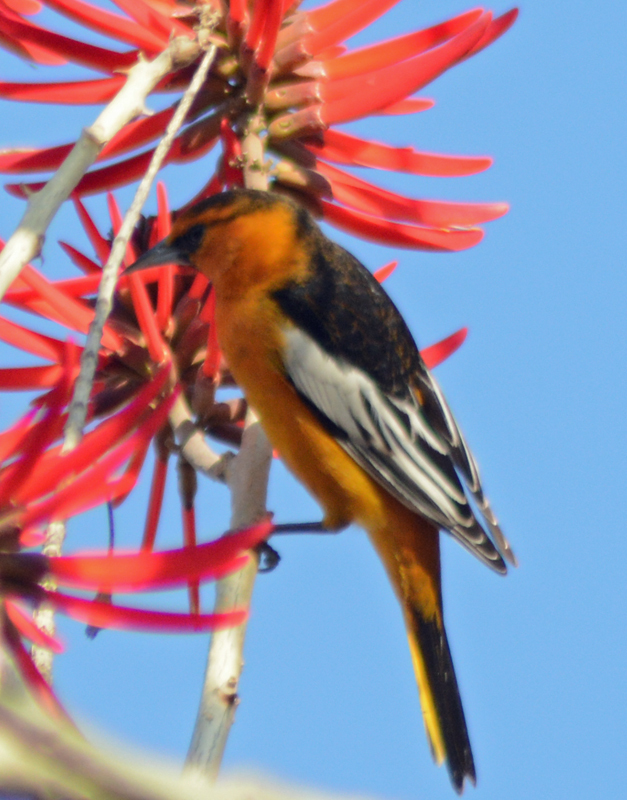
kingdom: Animalia
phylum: Chordata
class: Aves
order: Passeriformes
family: Icteridae
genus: Icterus
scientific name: Icterus bullockii
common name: Bullock's oriole
